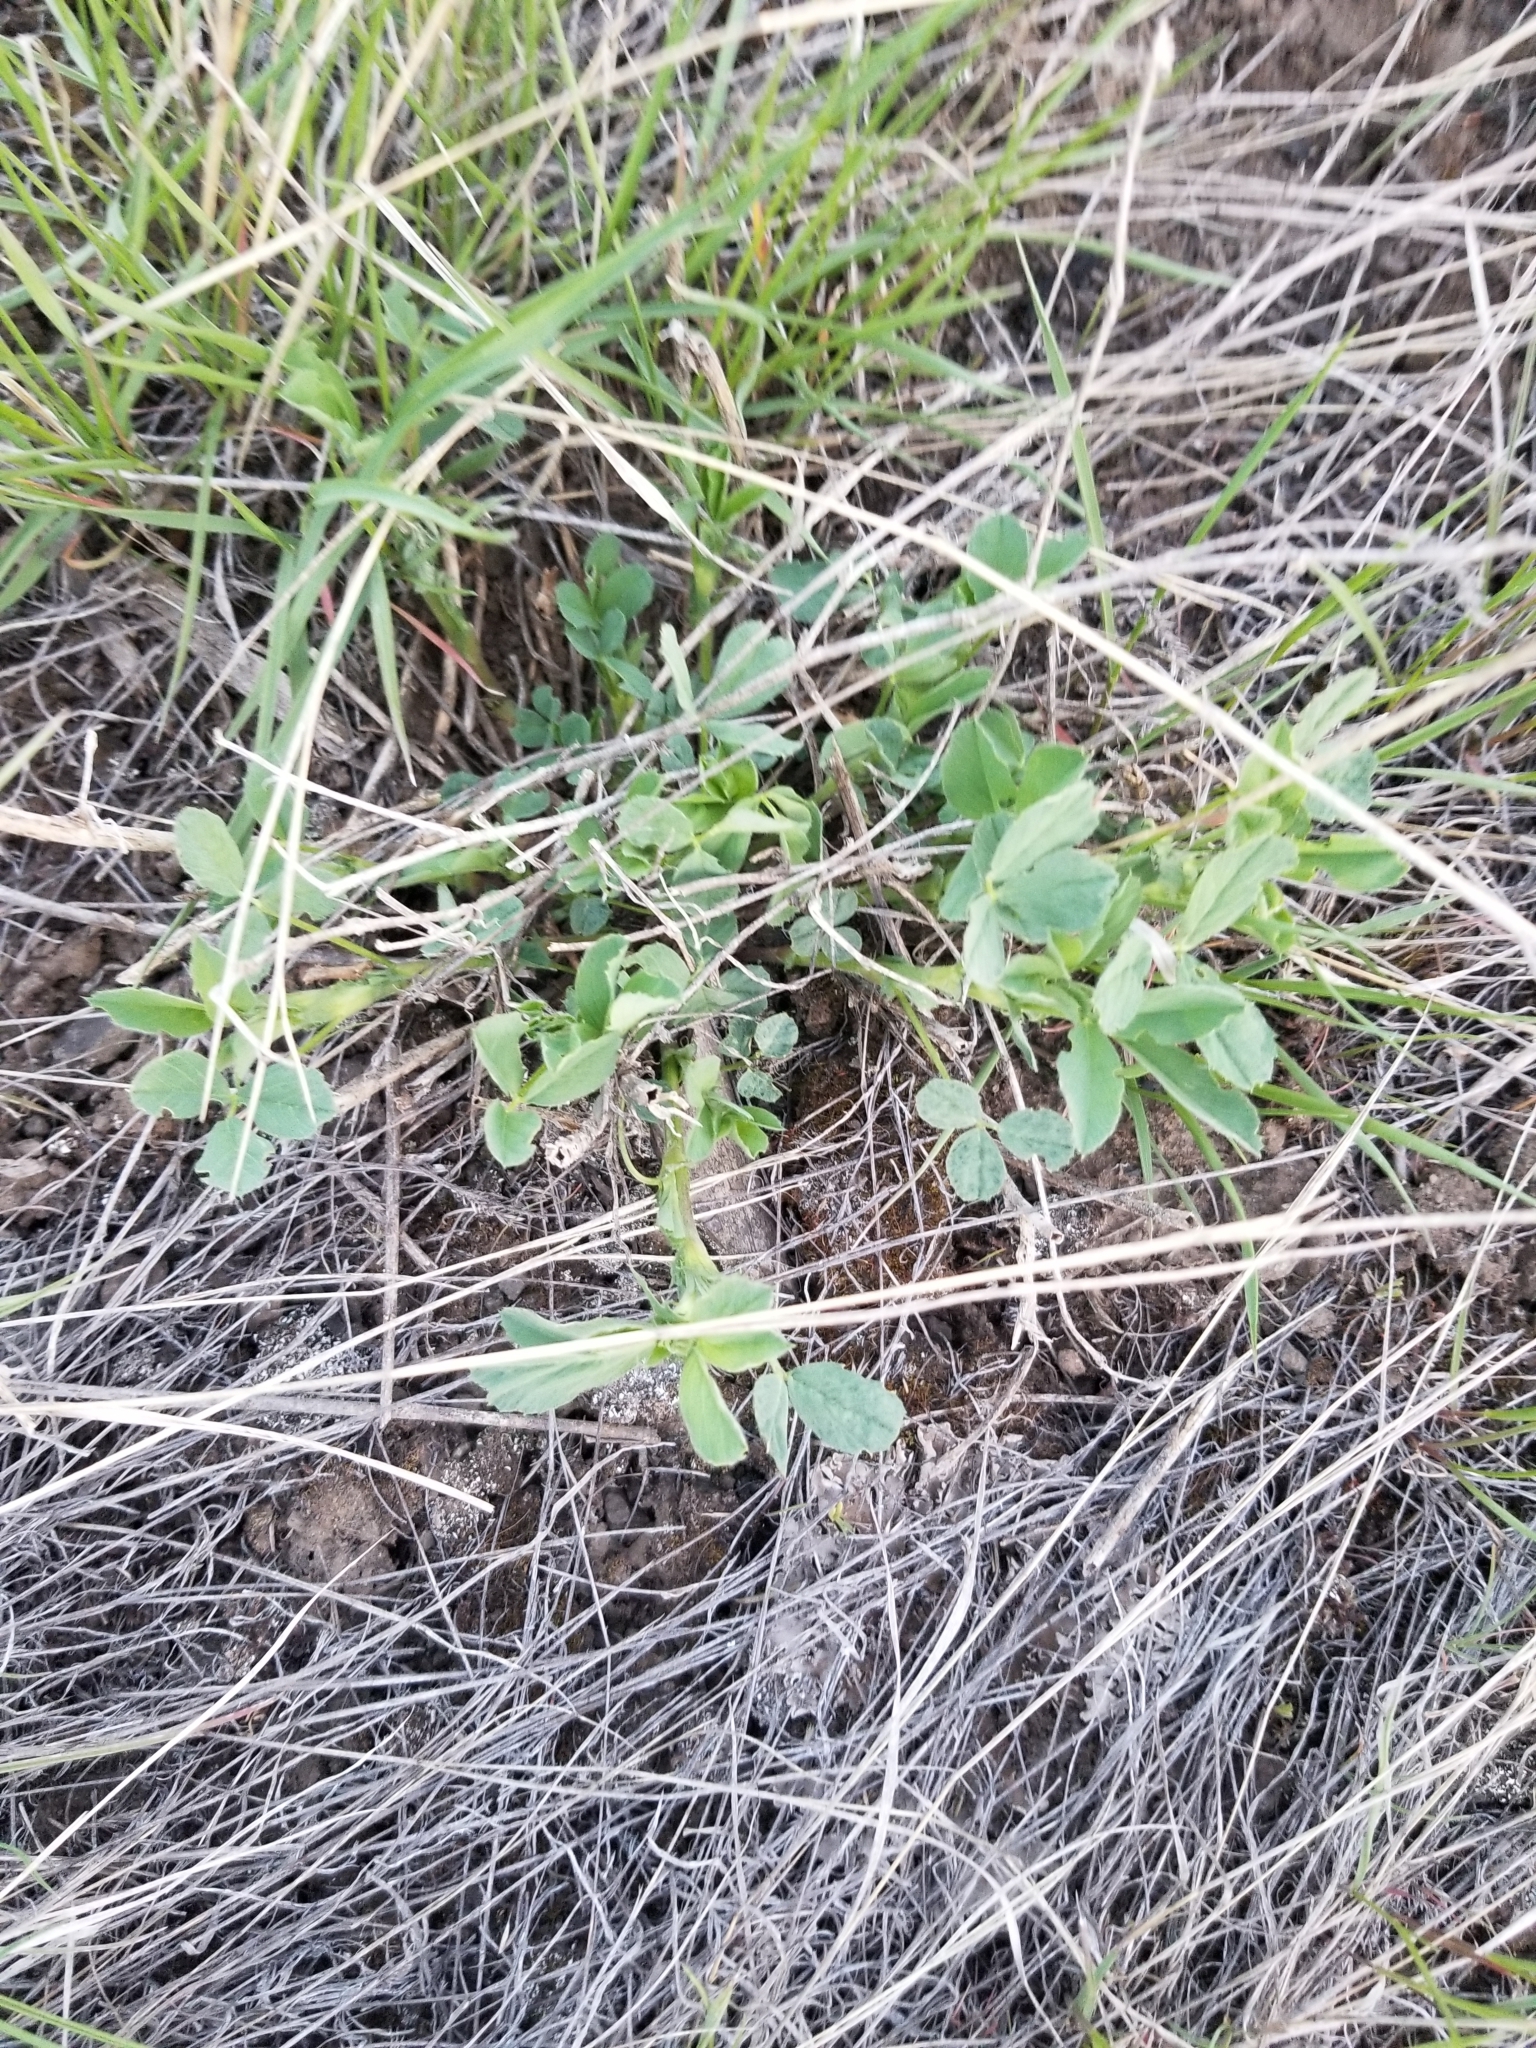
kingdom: Plantae
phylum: Tracheophyta
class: Magnoliopsida
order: Fabales
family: Fabaceae
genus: Medicago
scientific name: Medicago sativa
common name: Alfalfa
